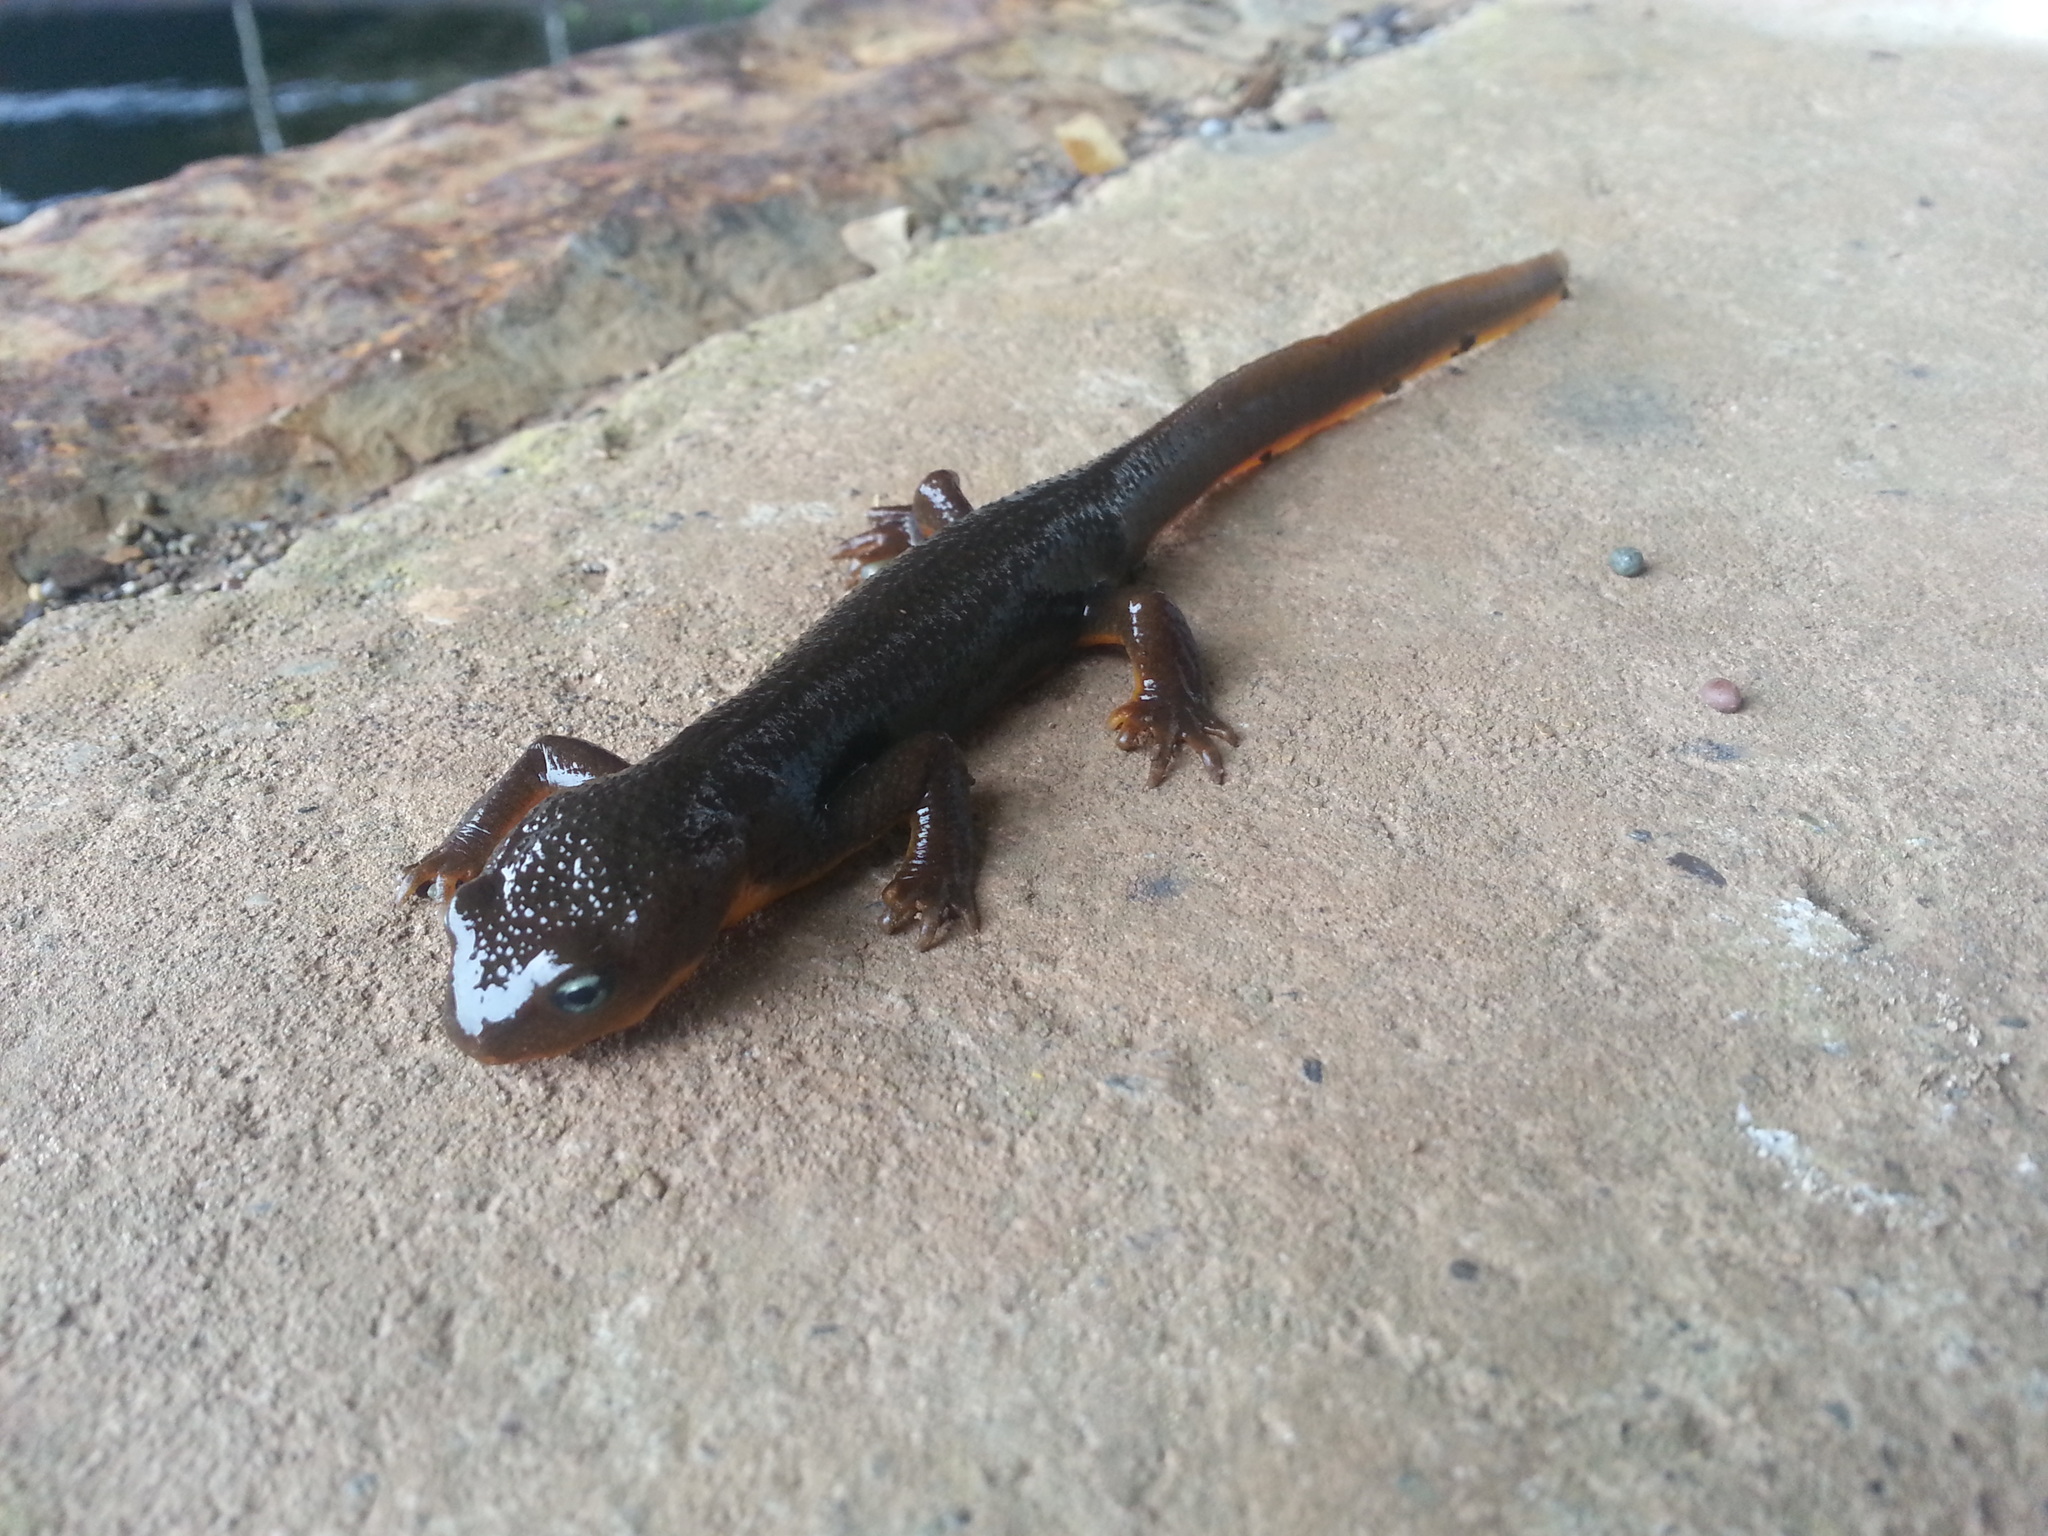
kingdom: Animalia
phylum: Chordata
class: Amphibia
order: Caudata
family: Salamandridae
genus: Taricha
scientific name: Taricha torosa
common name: California newt
